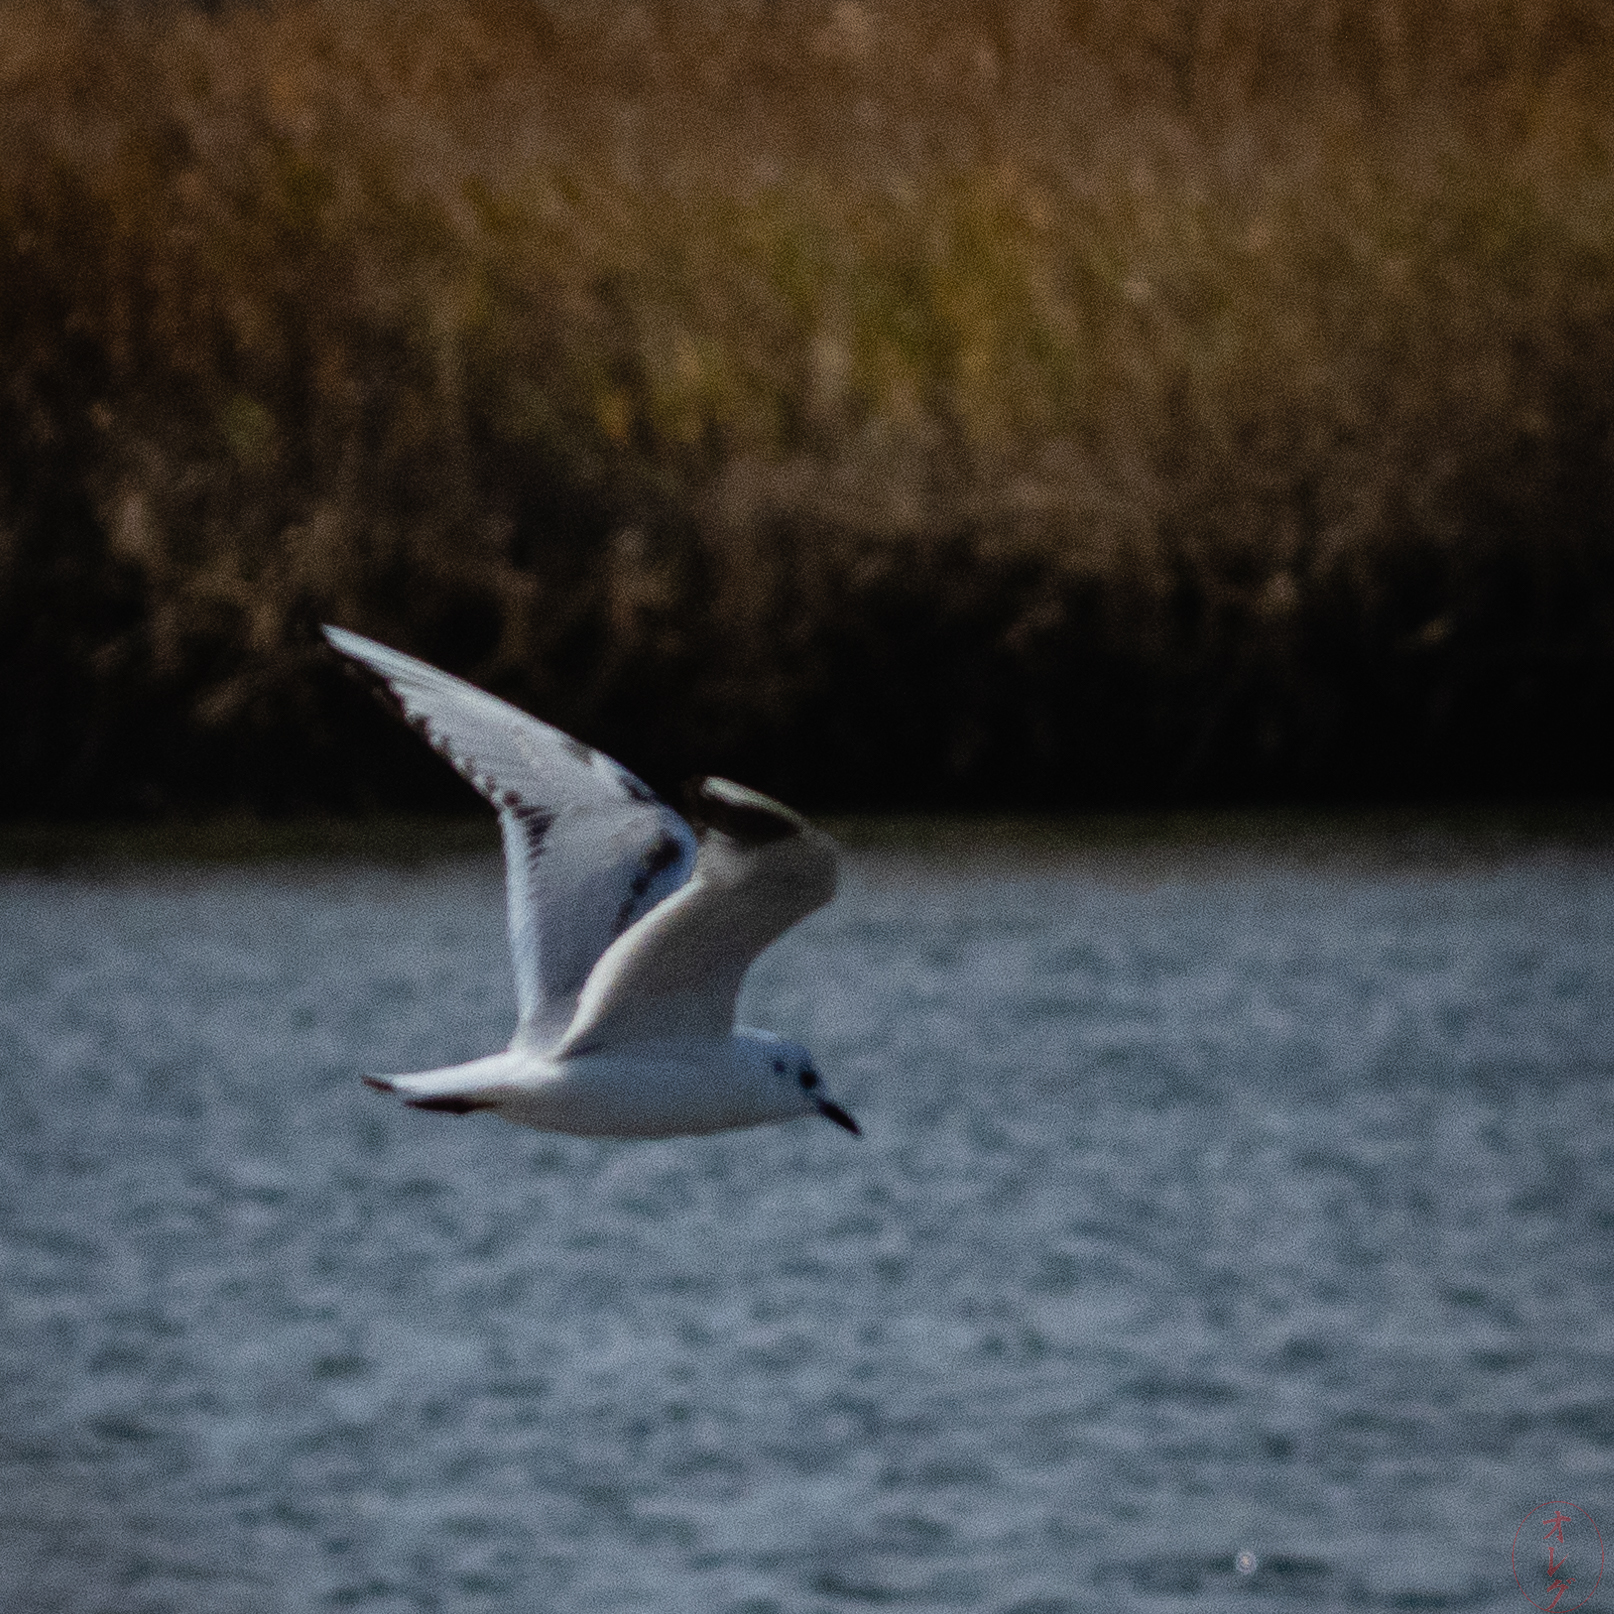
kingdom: Animalia
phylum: Chordata
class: Aves
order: Charadriiformes
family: Laridae
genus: Chroicocephalus
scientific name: Chroicocephalus ridibundus
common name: Black-headed gull
